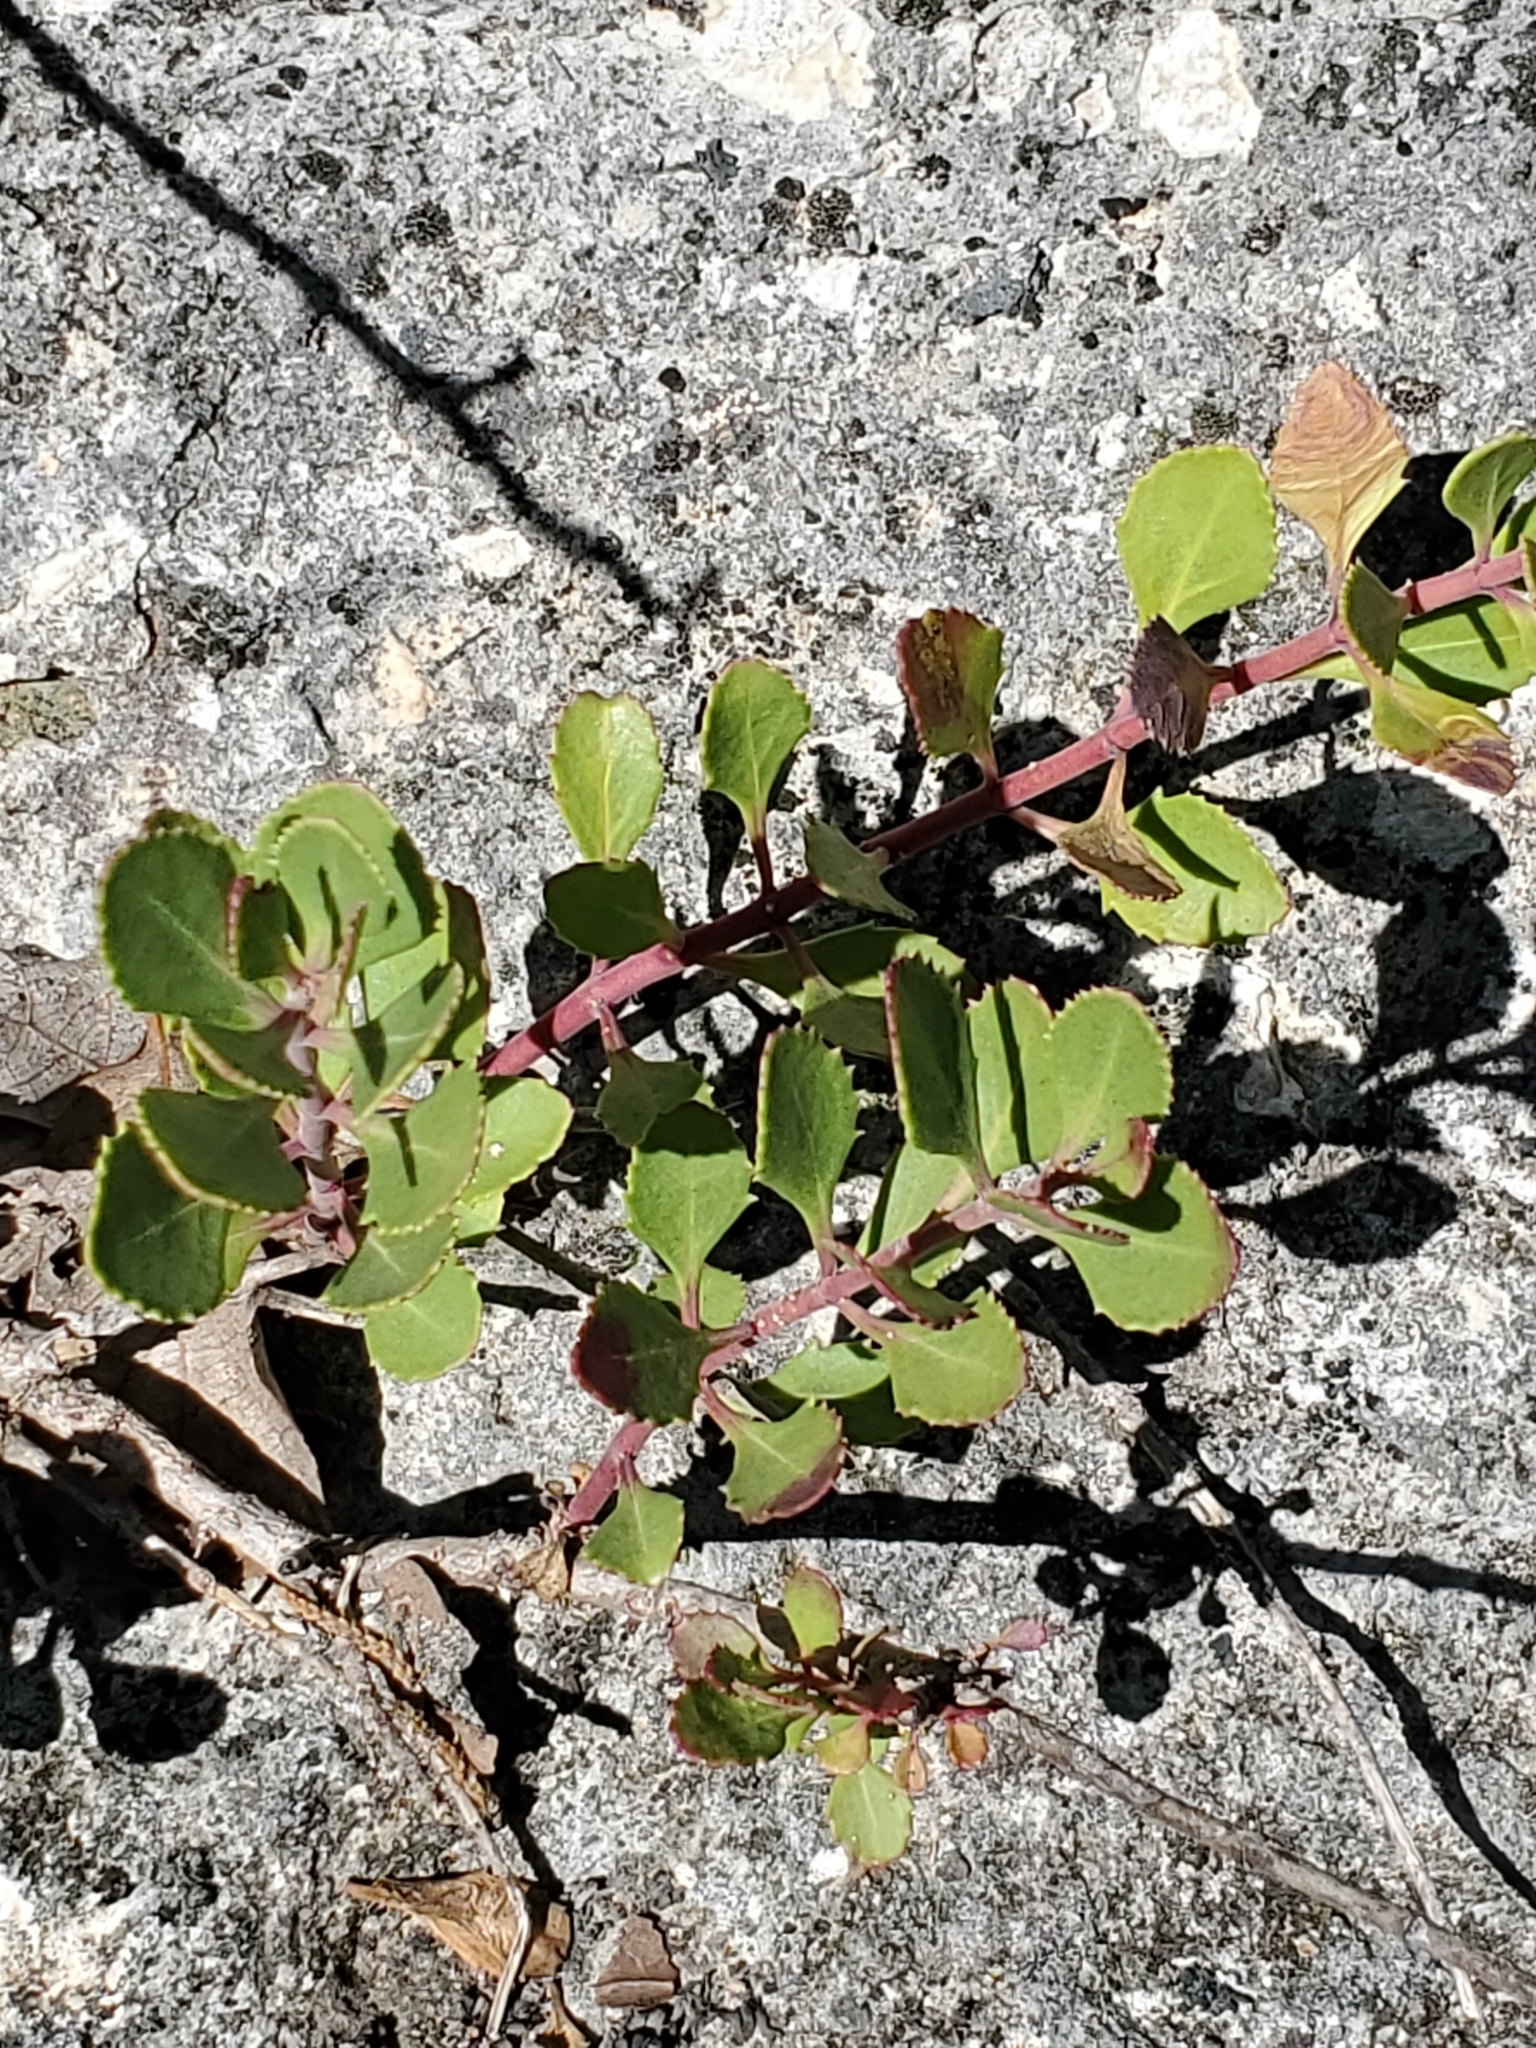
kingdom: Plantae
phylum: Tracheophyta
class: Magnoliopsida
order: Lamiales
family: Plantaginaceae
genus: Penstemon
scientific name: Penstemon baccharifolius
